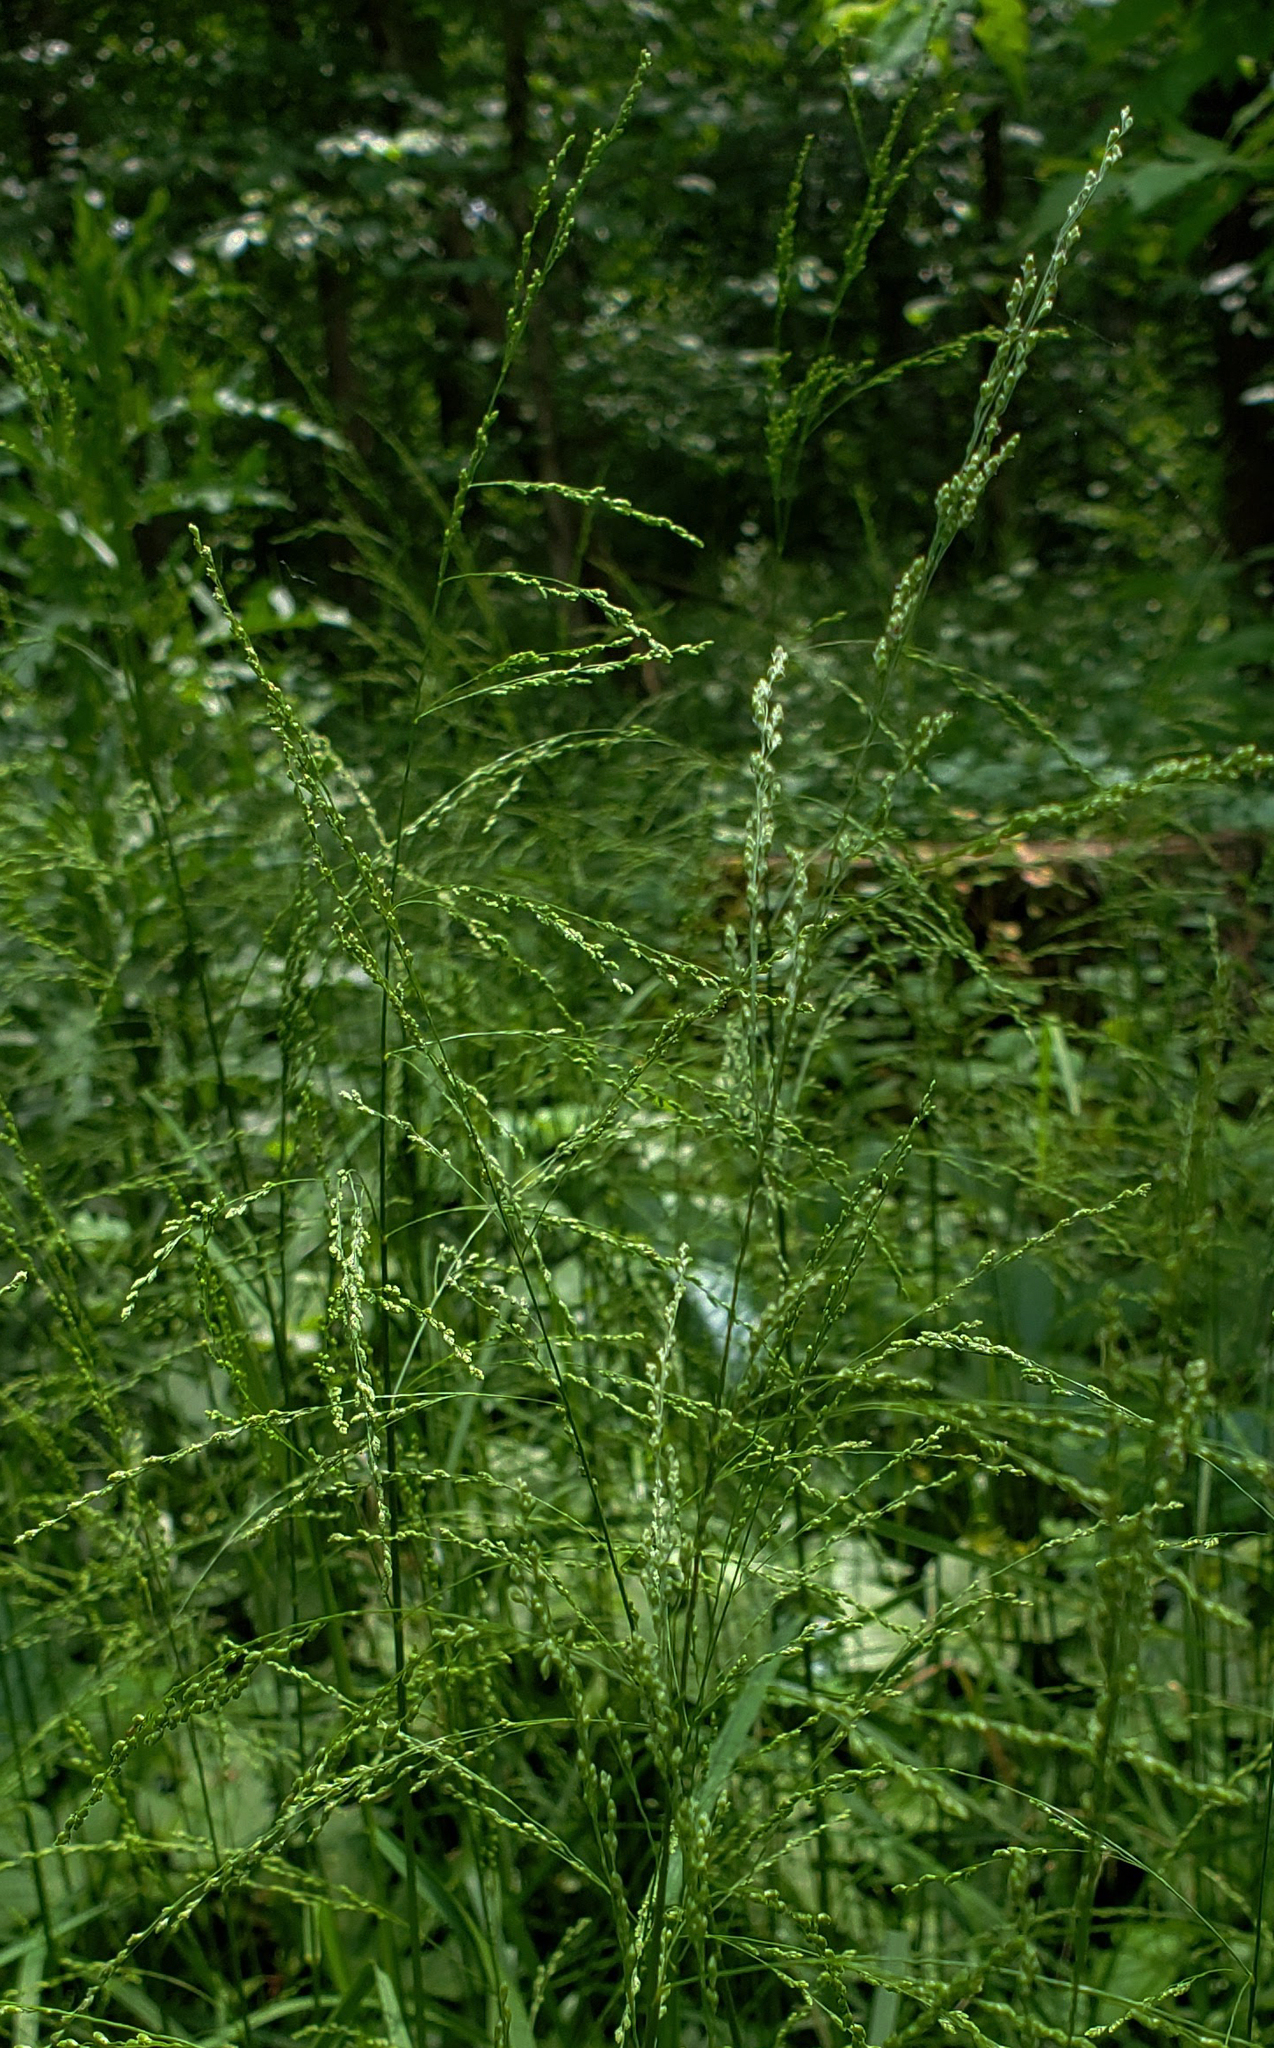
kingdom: Plantae
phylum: Tracheophyta
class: Liliopsida
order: Poales
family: Poaceae
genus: Glyceria
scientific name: Glyceria striata
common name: Fowl manna grass
